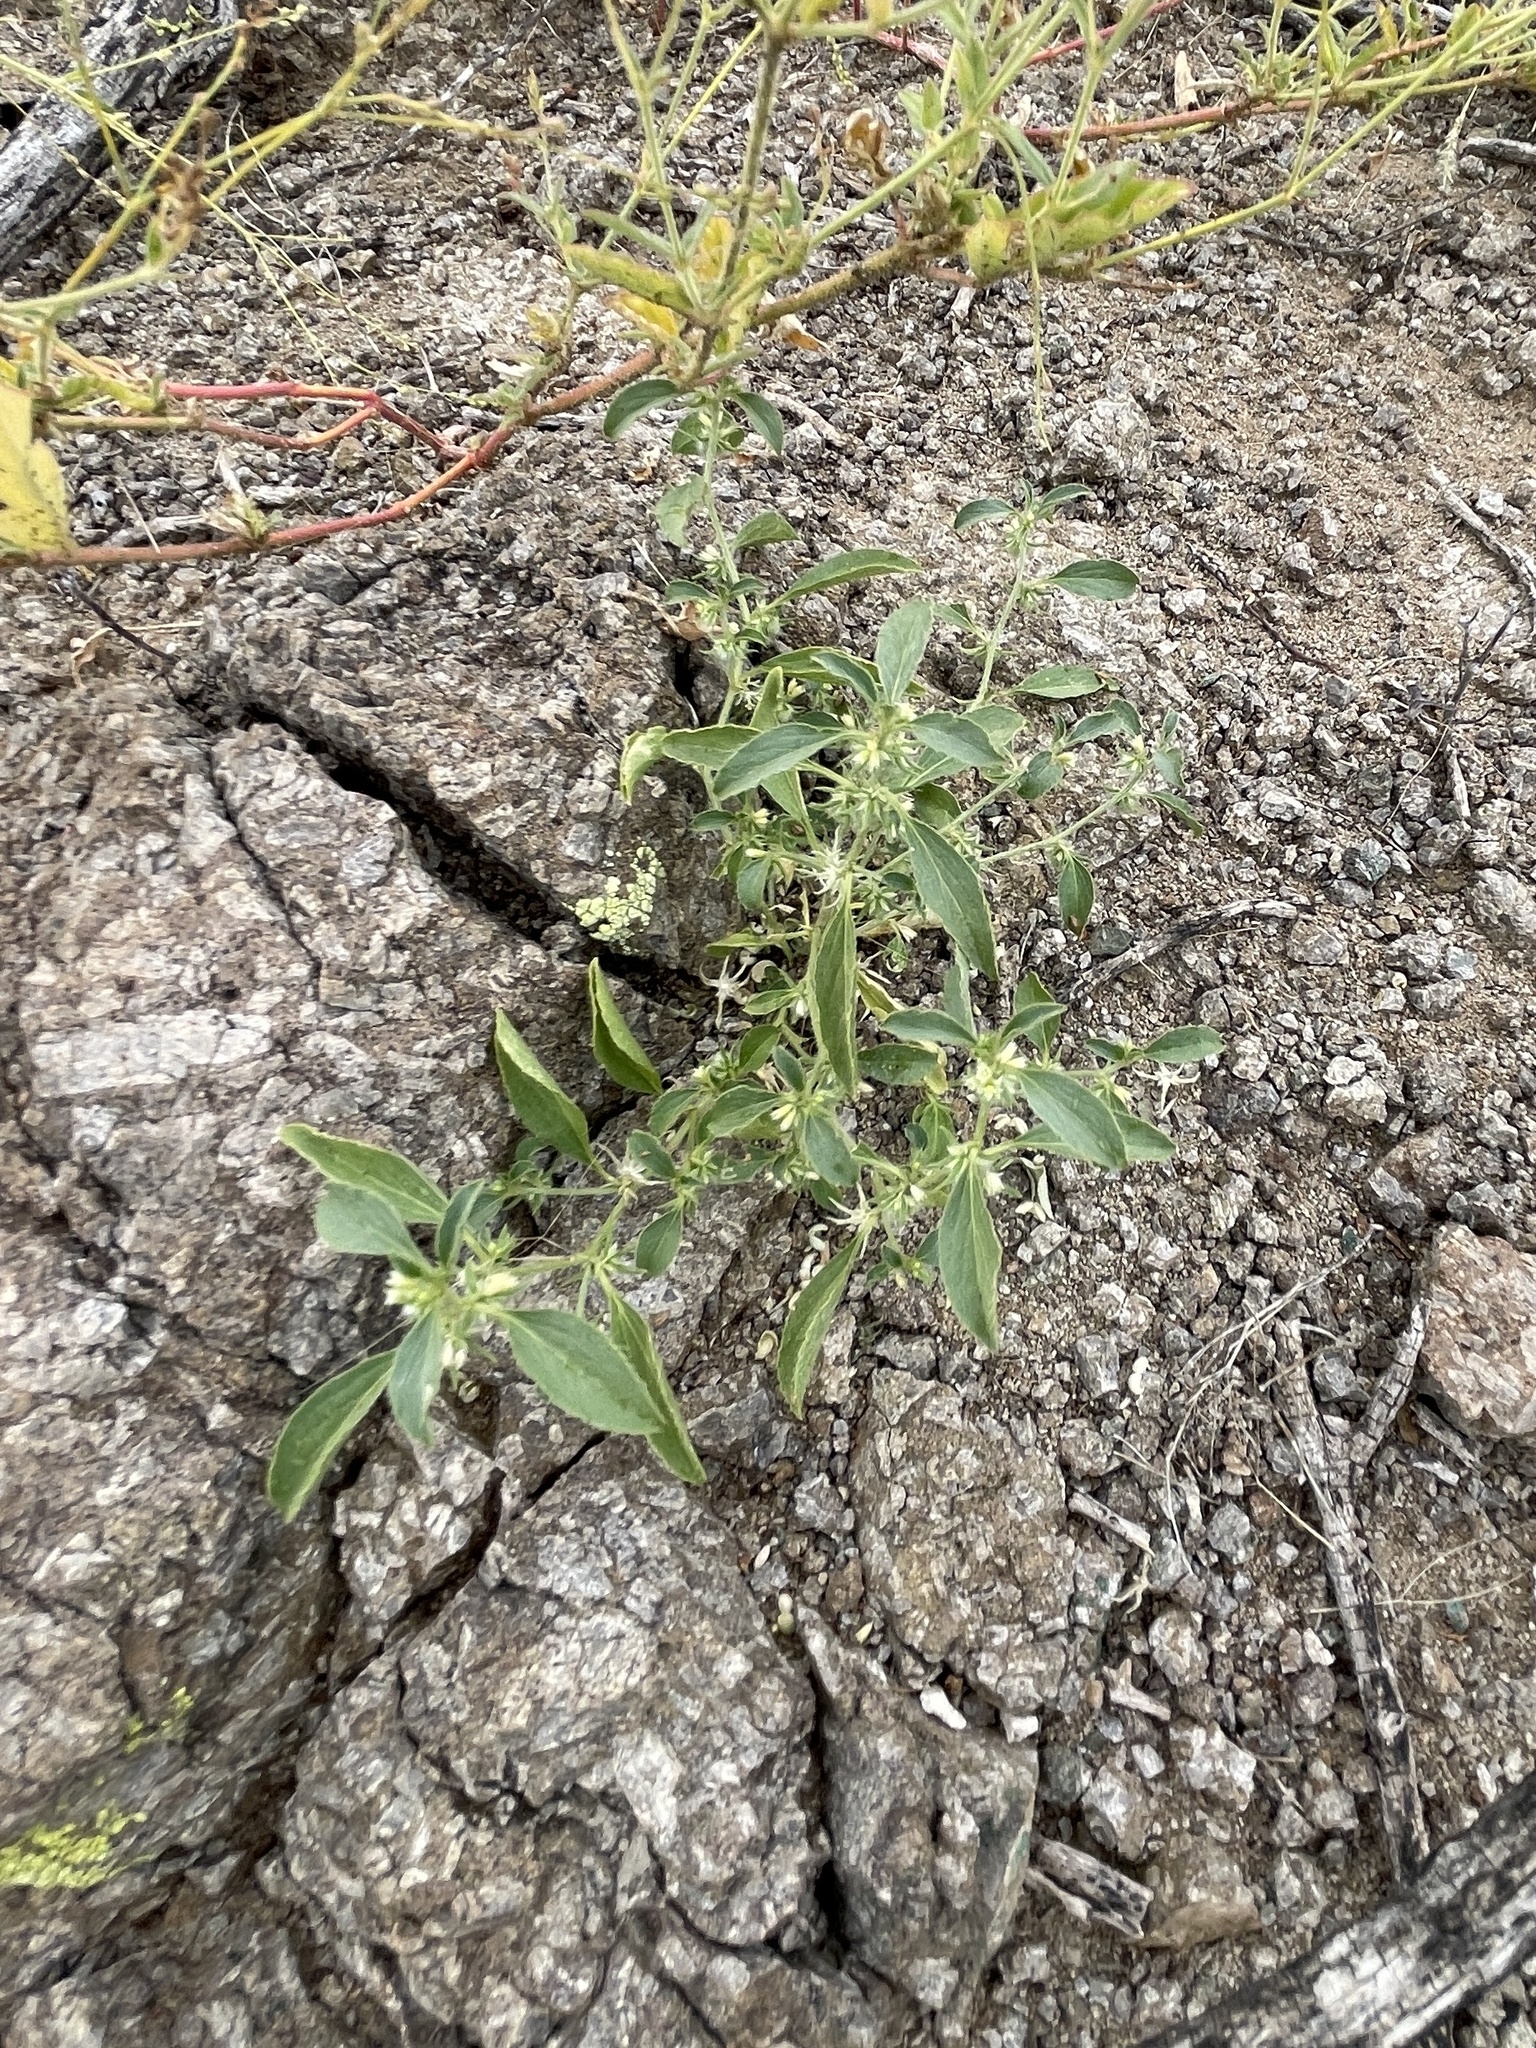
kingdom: Plantae
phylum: Tracheophyta
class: Magnoliopsida
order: Malpighiales
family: Euphorbiaceae
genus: Ditaxis
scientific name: Ditaxis serrata
